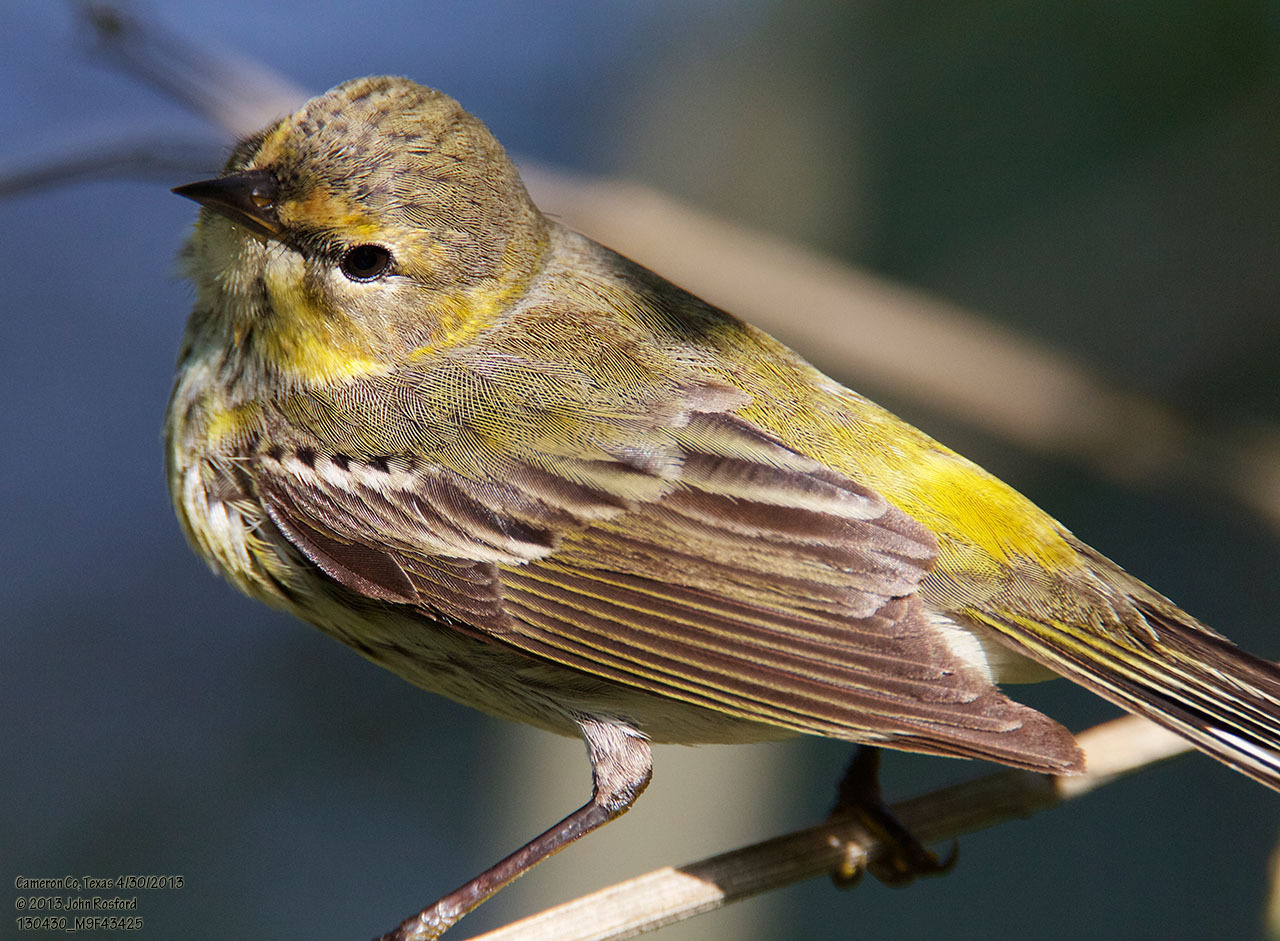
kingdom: Animalia
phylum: Chordata
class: Aves
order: Passeriformes
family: Parulidae
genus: Setophaga
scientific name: Setophaga tigrina
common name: Cape may warbler
